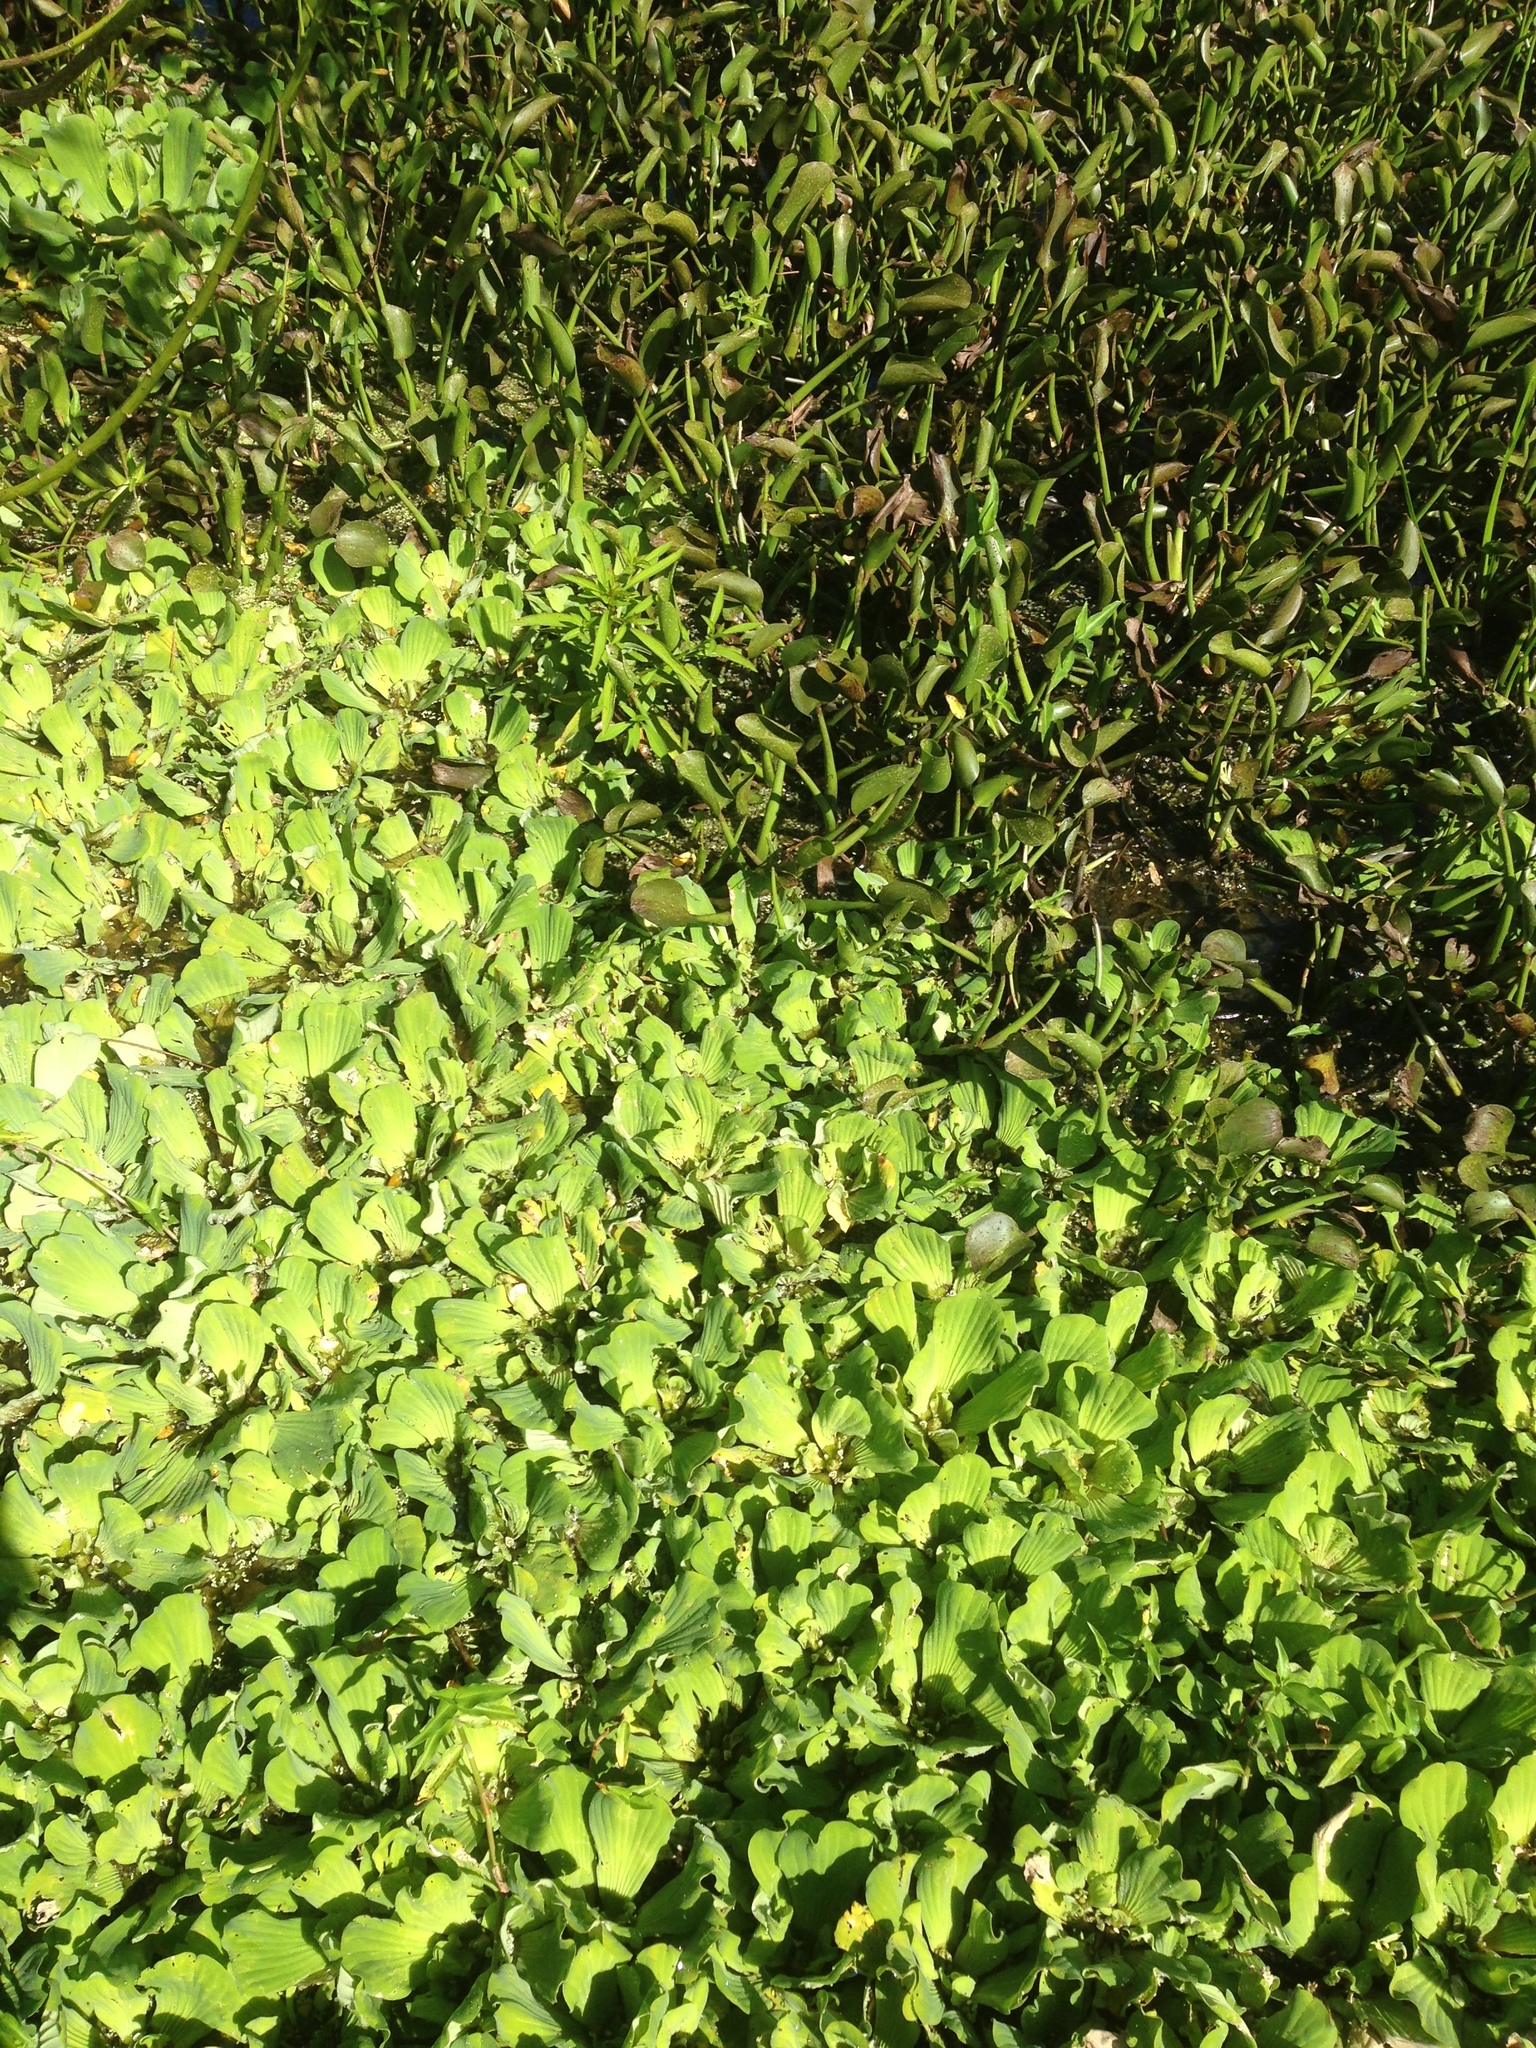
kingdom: Plantae
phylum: Tracheophyta
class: Liliopsida
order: Alismatales
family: Araceae
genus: Pistia
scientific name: Pistia stratiotes
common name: Water lettuce
